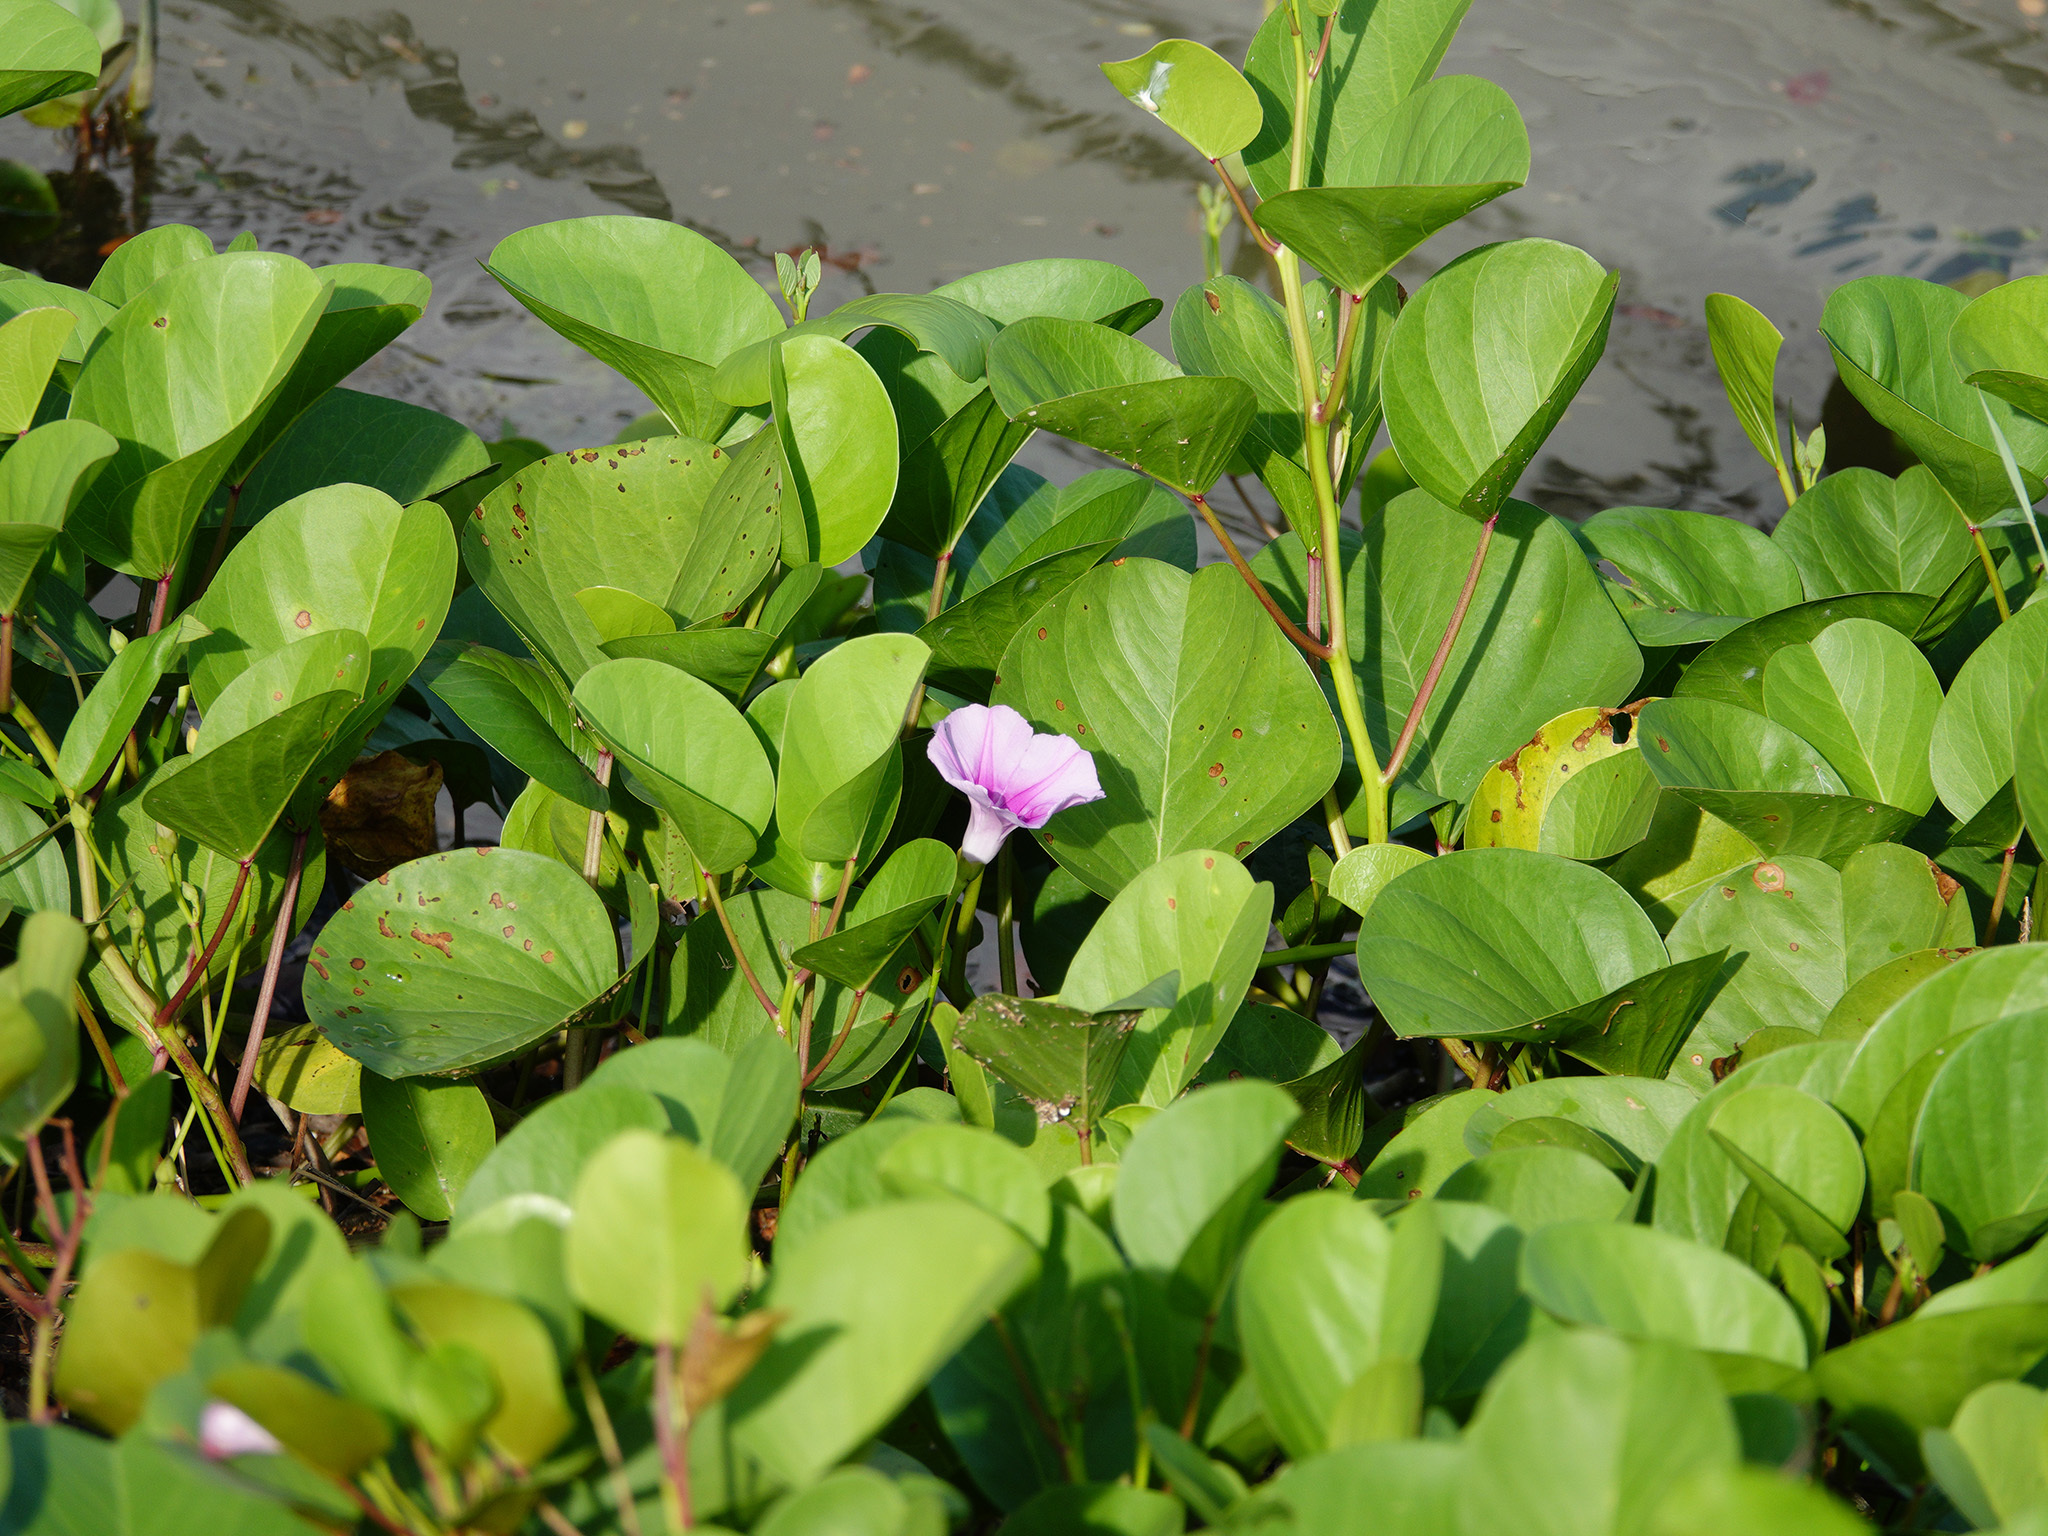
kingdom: Plantae
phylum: Tracheophyta
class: Magnoliopsida
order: Solanales
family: Convolvulaceae
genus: Ipomoea
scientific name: Ipomoea pes-caprae
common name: Beach morning glory
